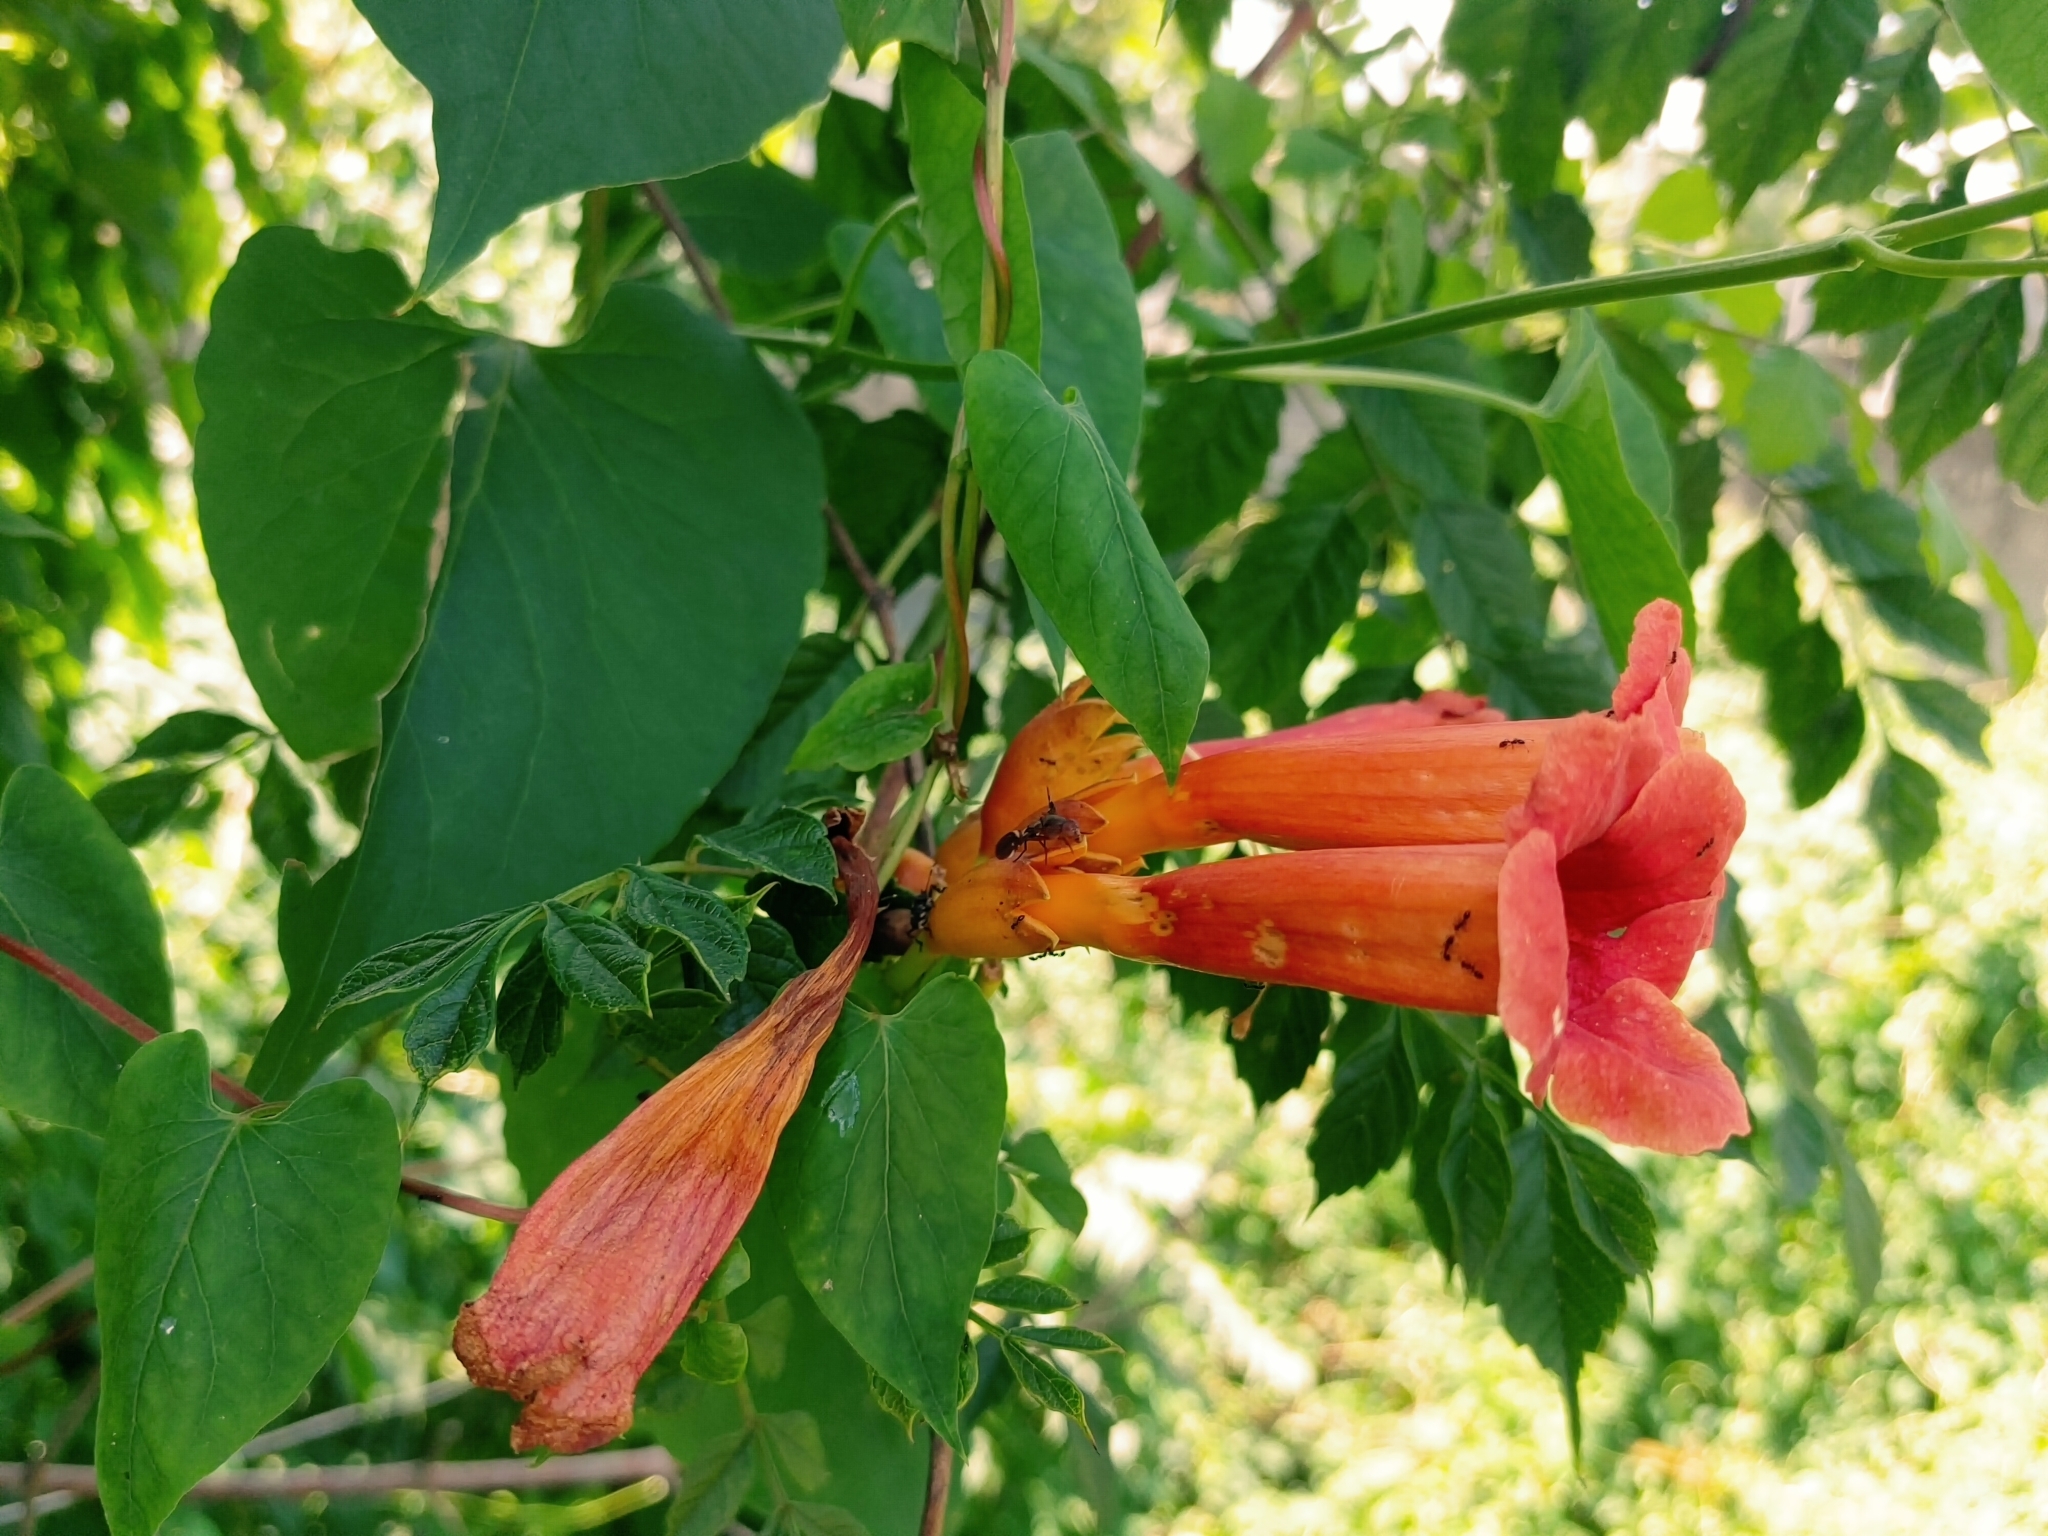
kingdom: Plantae
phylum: Tracheophyta
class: Magnoliopsida
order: Lamiales
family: Bignoniaceae
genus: Campsis
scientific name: Campsis radicans
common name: Trumpet-creeper
